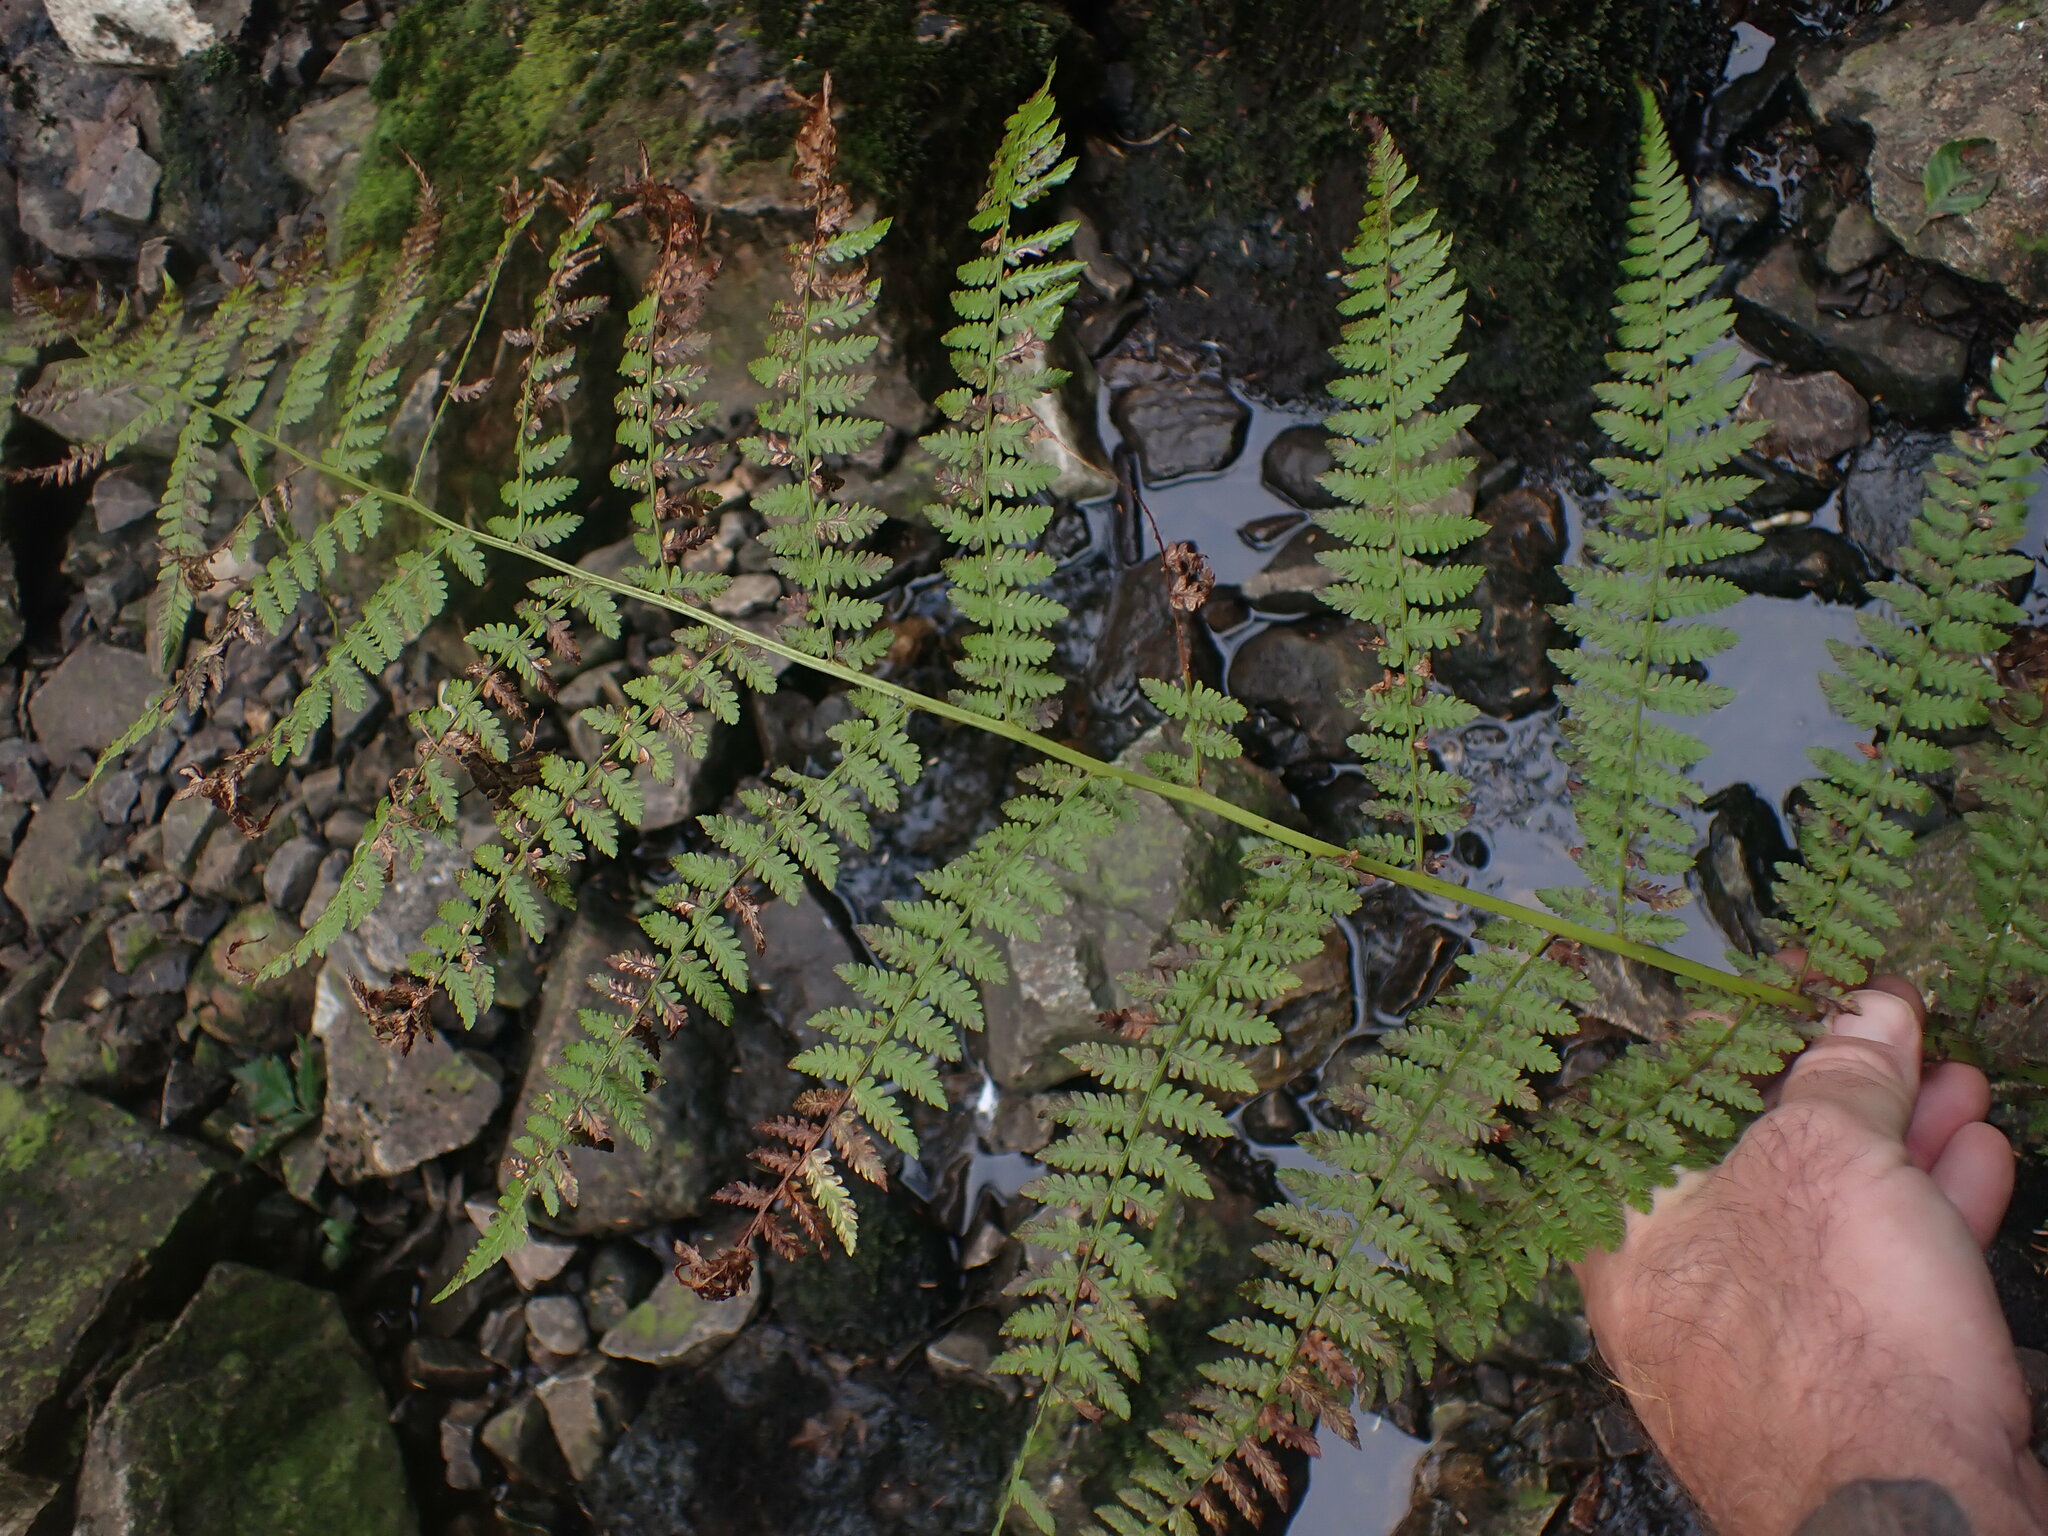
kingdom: Plantae
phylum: Tracheophyta
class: Polypodiopsida
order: Polypodiales
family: Athyriaceae
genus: Athyrium
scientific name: Athyrium filix-femina
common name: Lady fern
